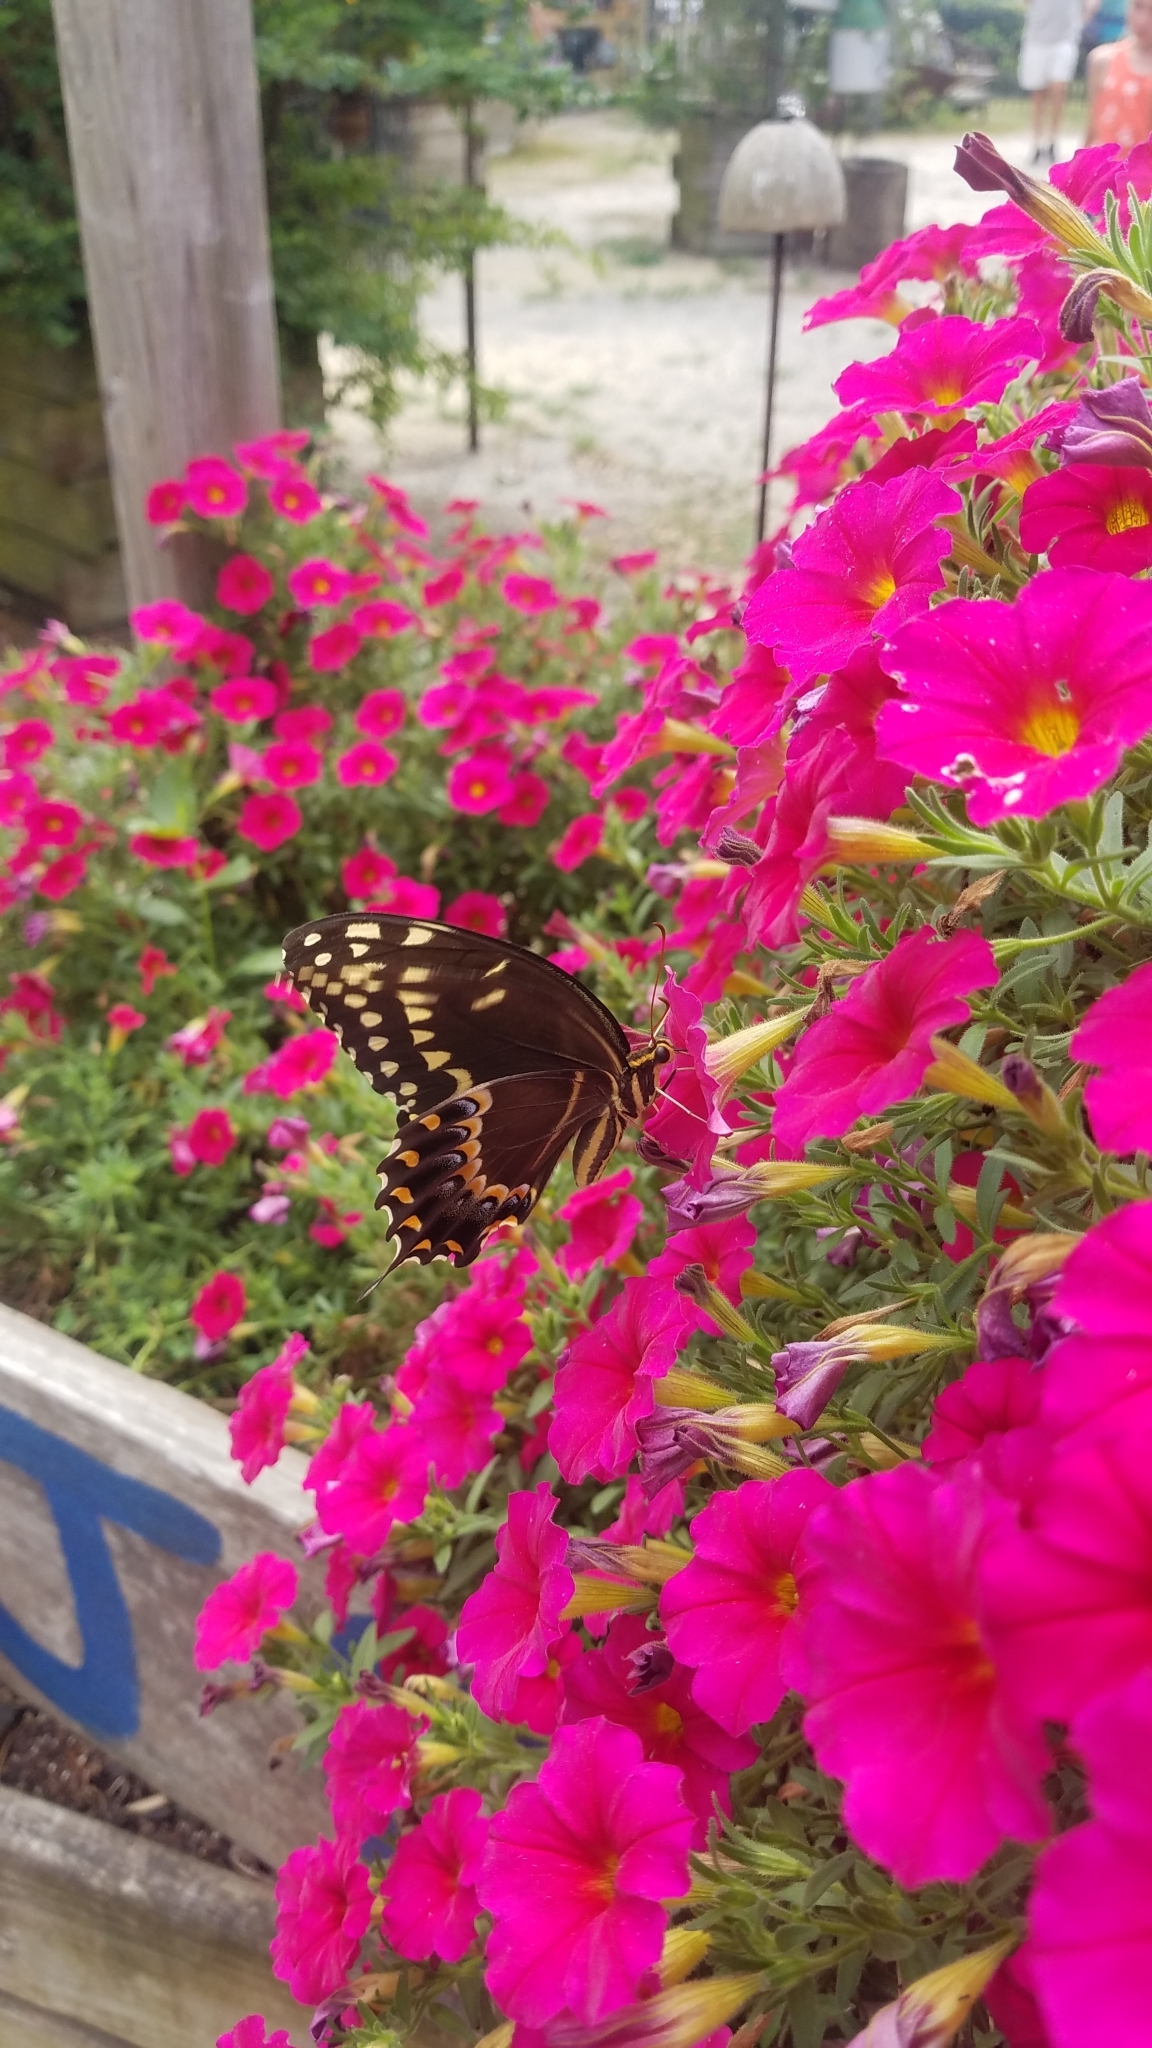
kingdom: Animalia
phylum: Arthropoda
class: Insecta
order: Lepidoptera
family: Papilionidae
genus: Papilio
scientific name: Papilio palamedes
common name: Palamedes swallowtail
